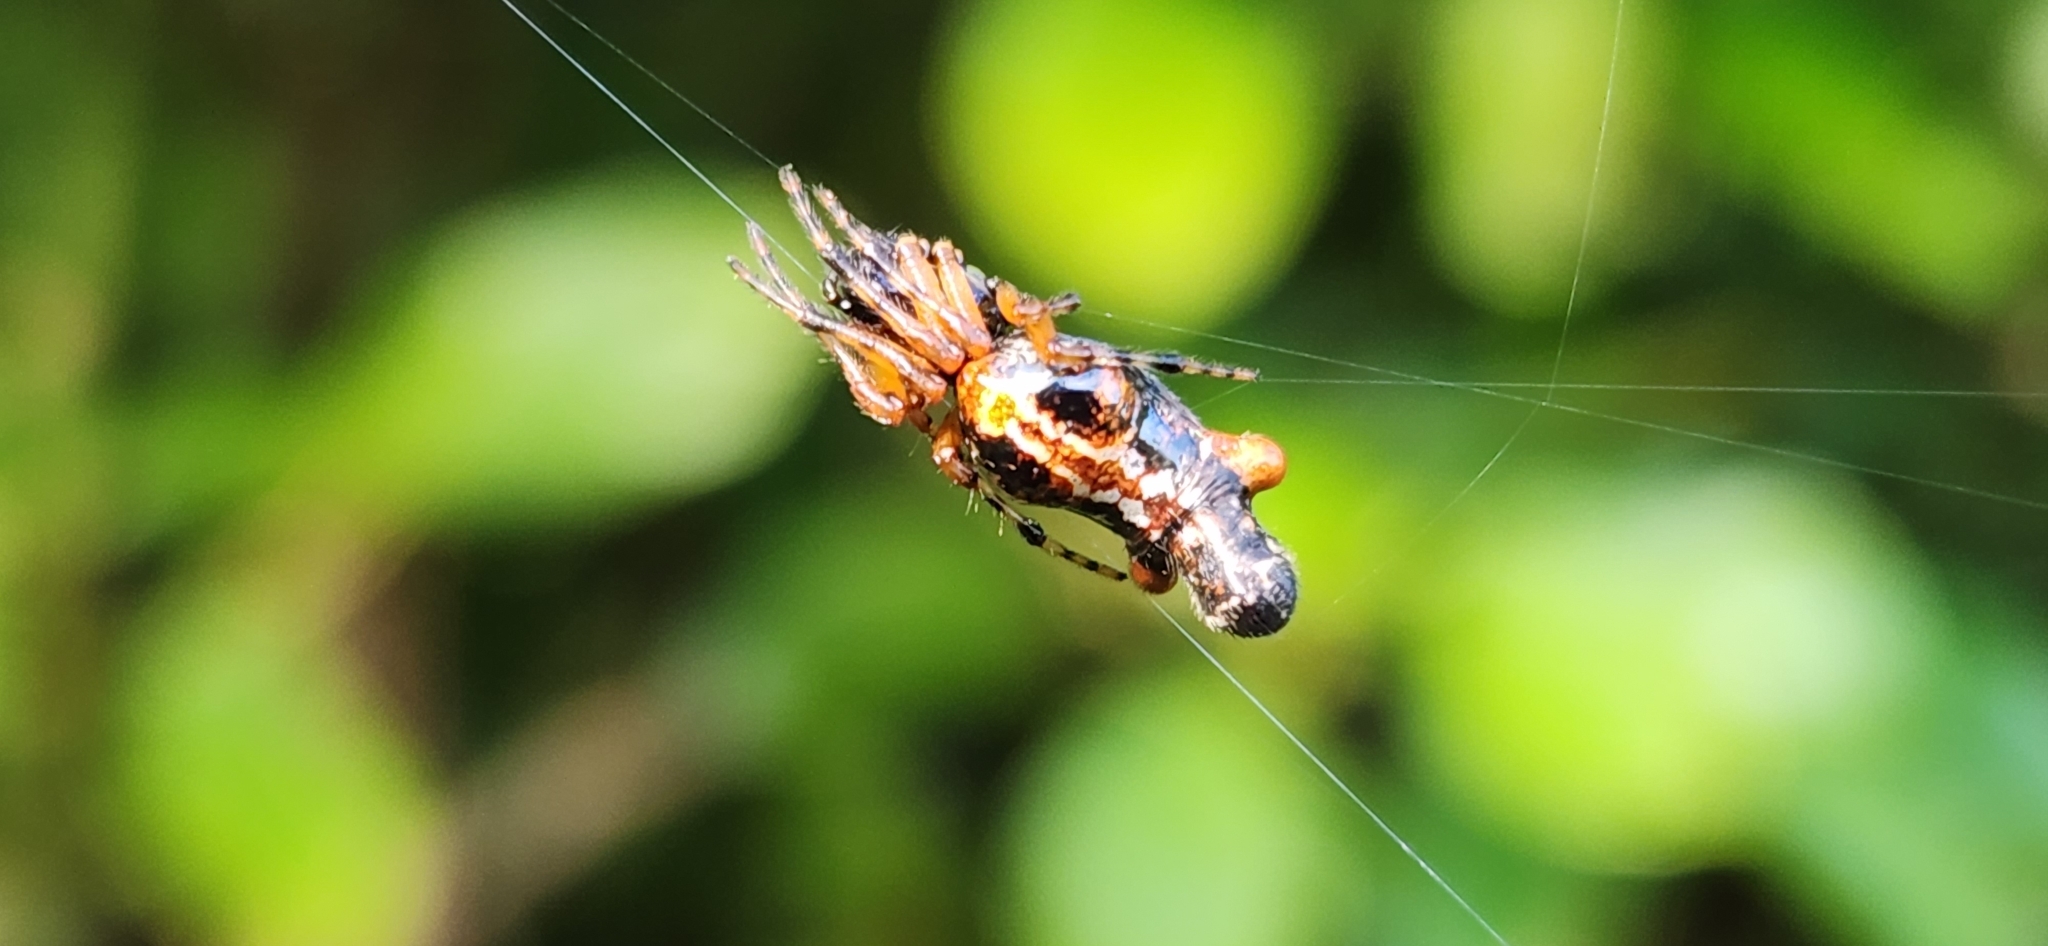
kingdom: Animalia
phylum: Arthropoda
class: Arachnida
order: Araneae
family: Araneidae
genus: Cyclosa
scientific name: Cyclosa trilobata
